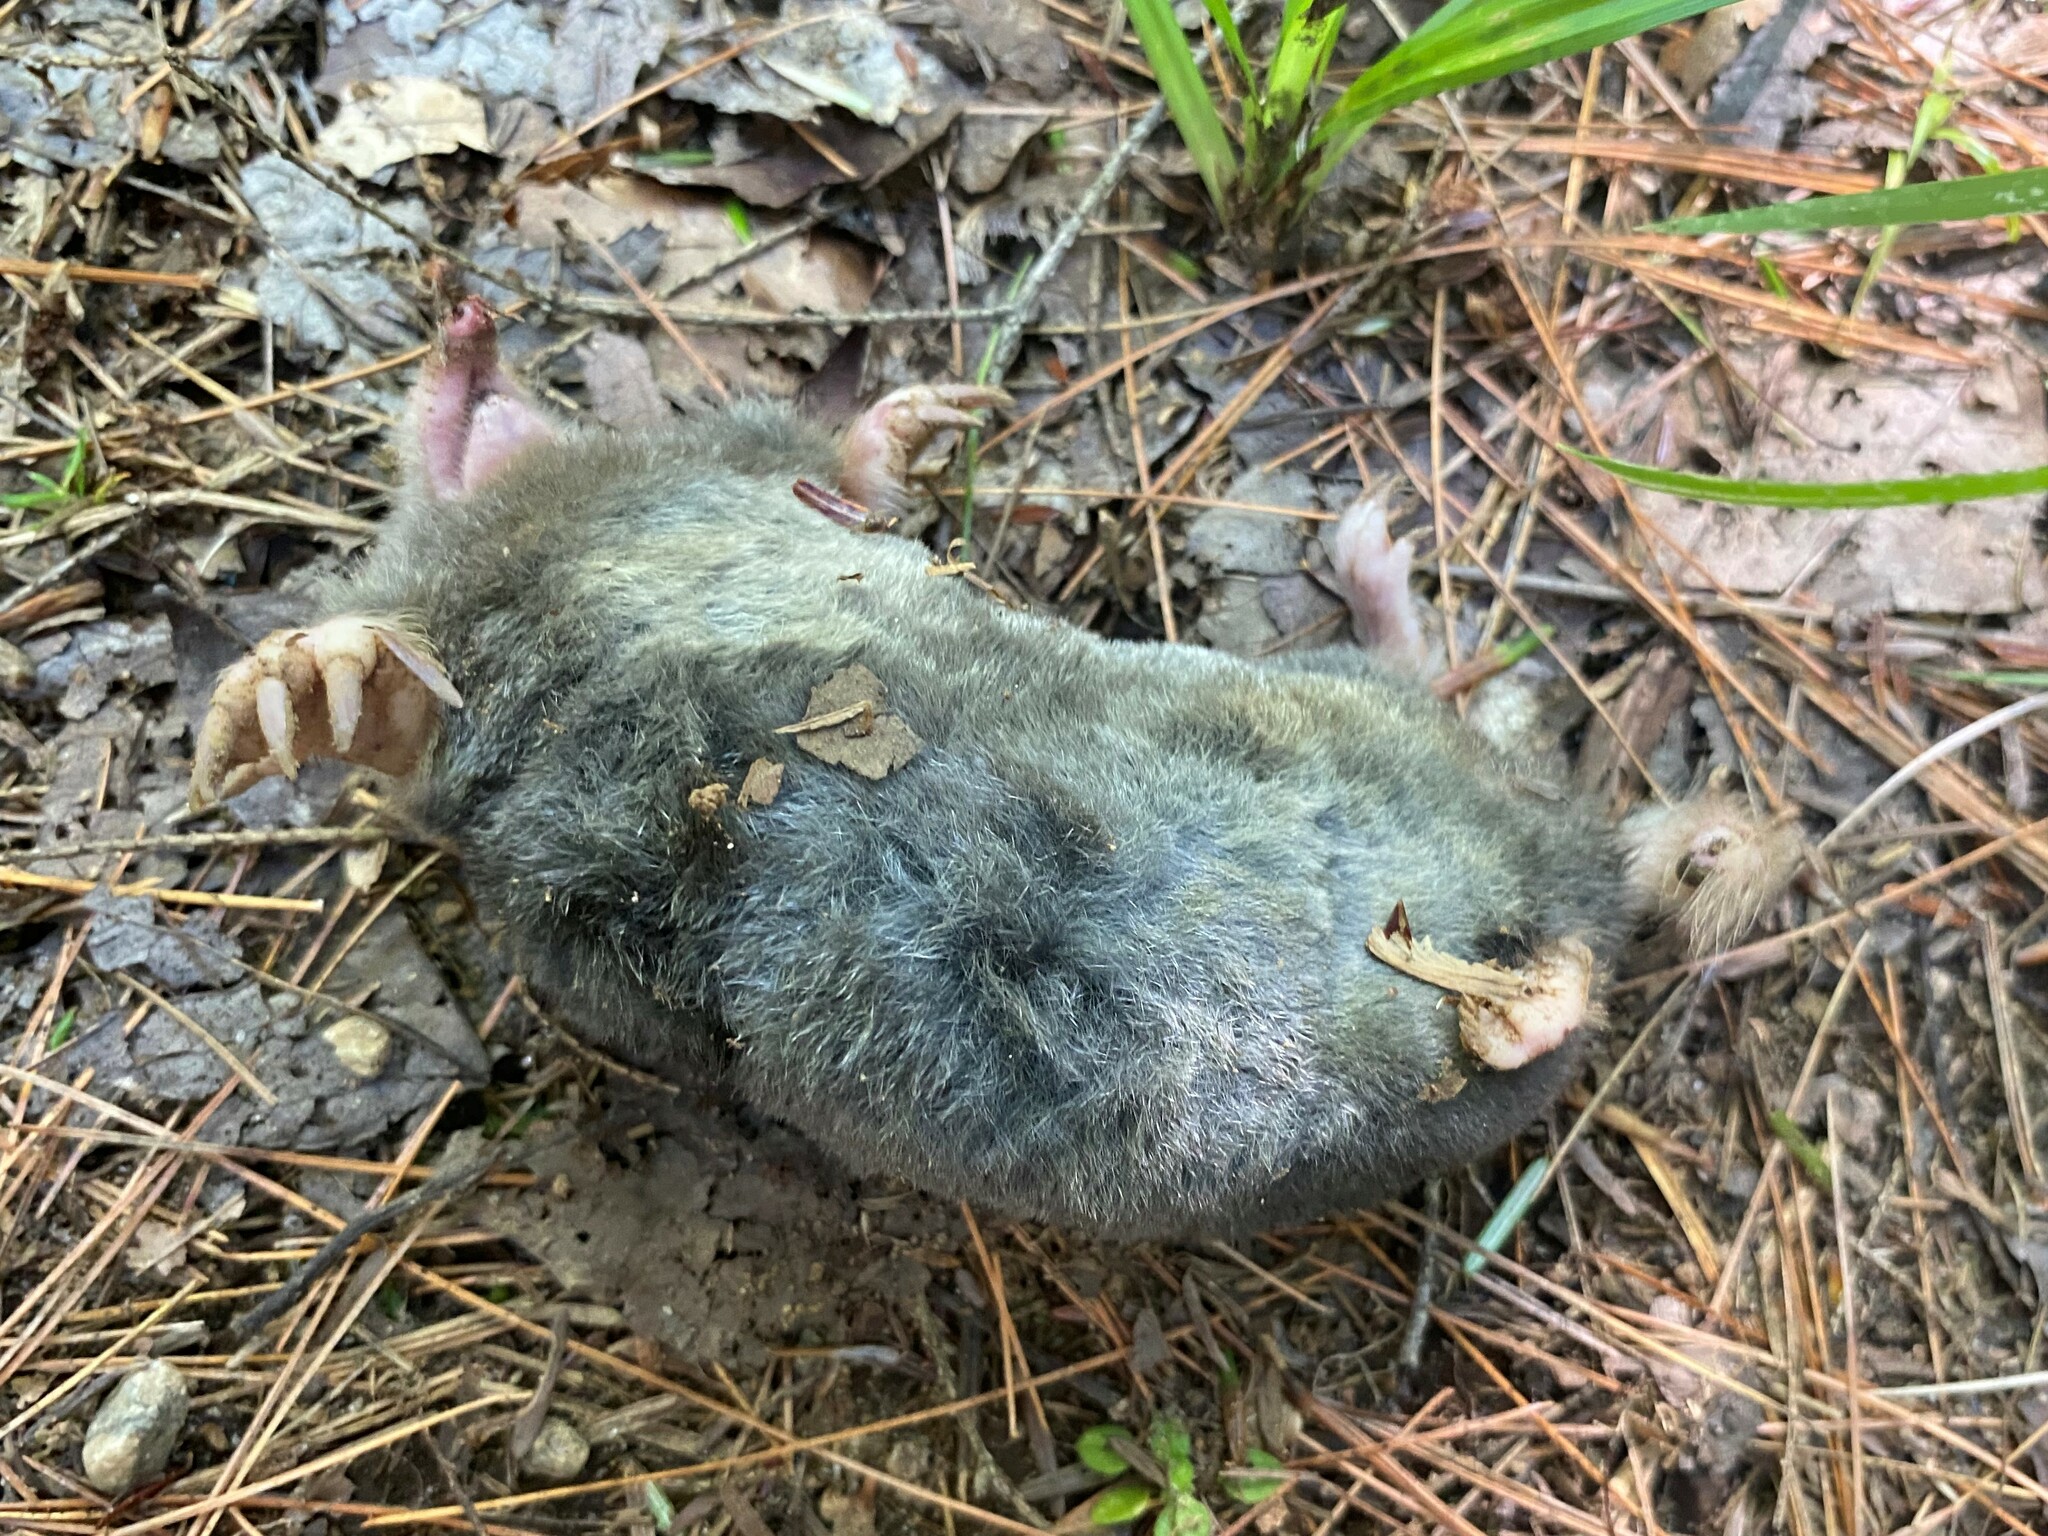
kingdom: Animalia
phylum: Chordata
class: Mammalia
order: Soricomorpha
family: Talpidae
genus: Parascalops
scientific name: Parascalops breweri
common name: Hairy-tailed mole
